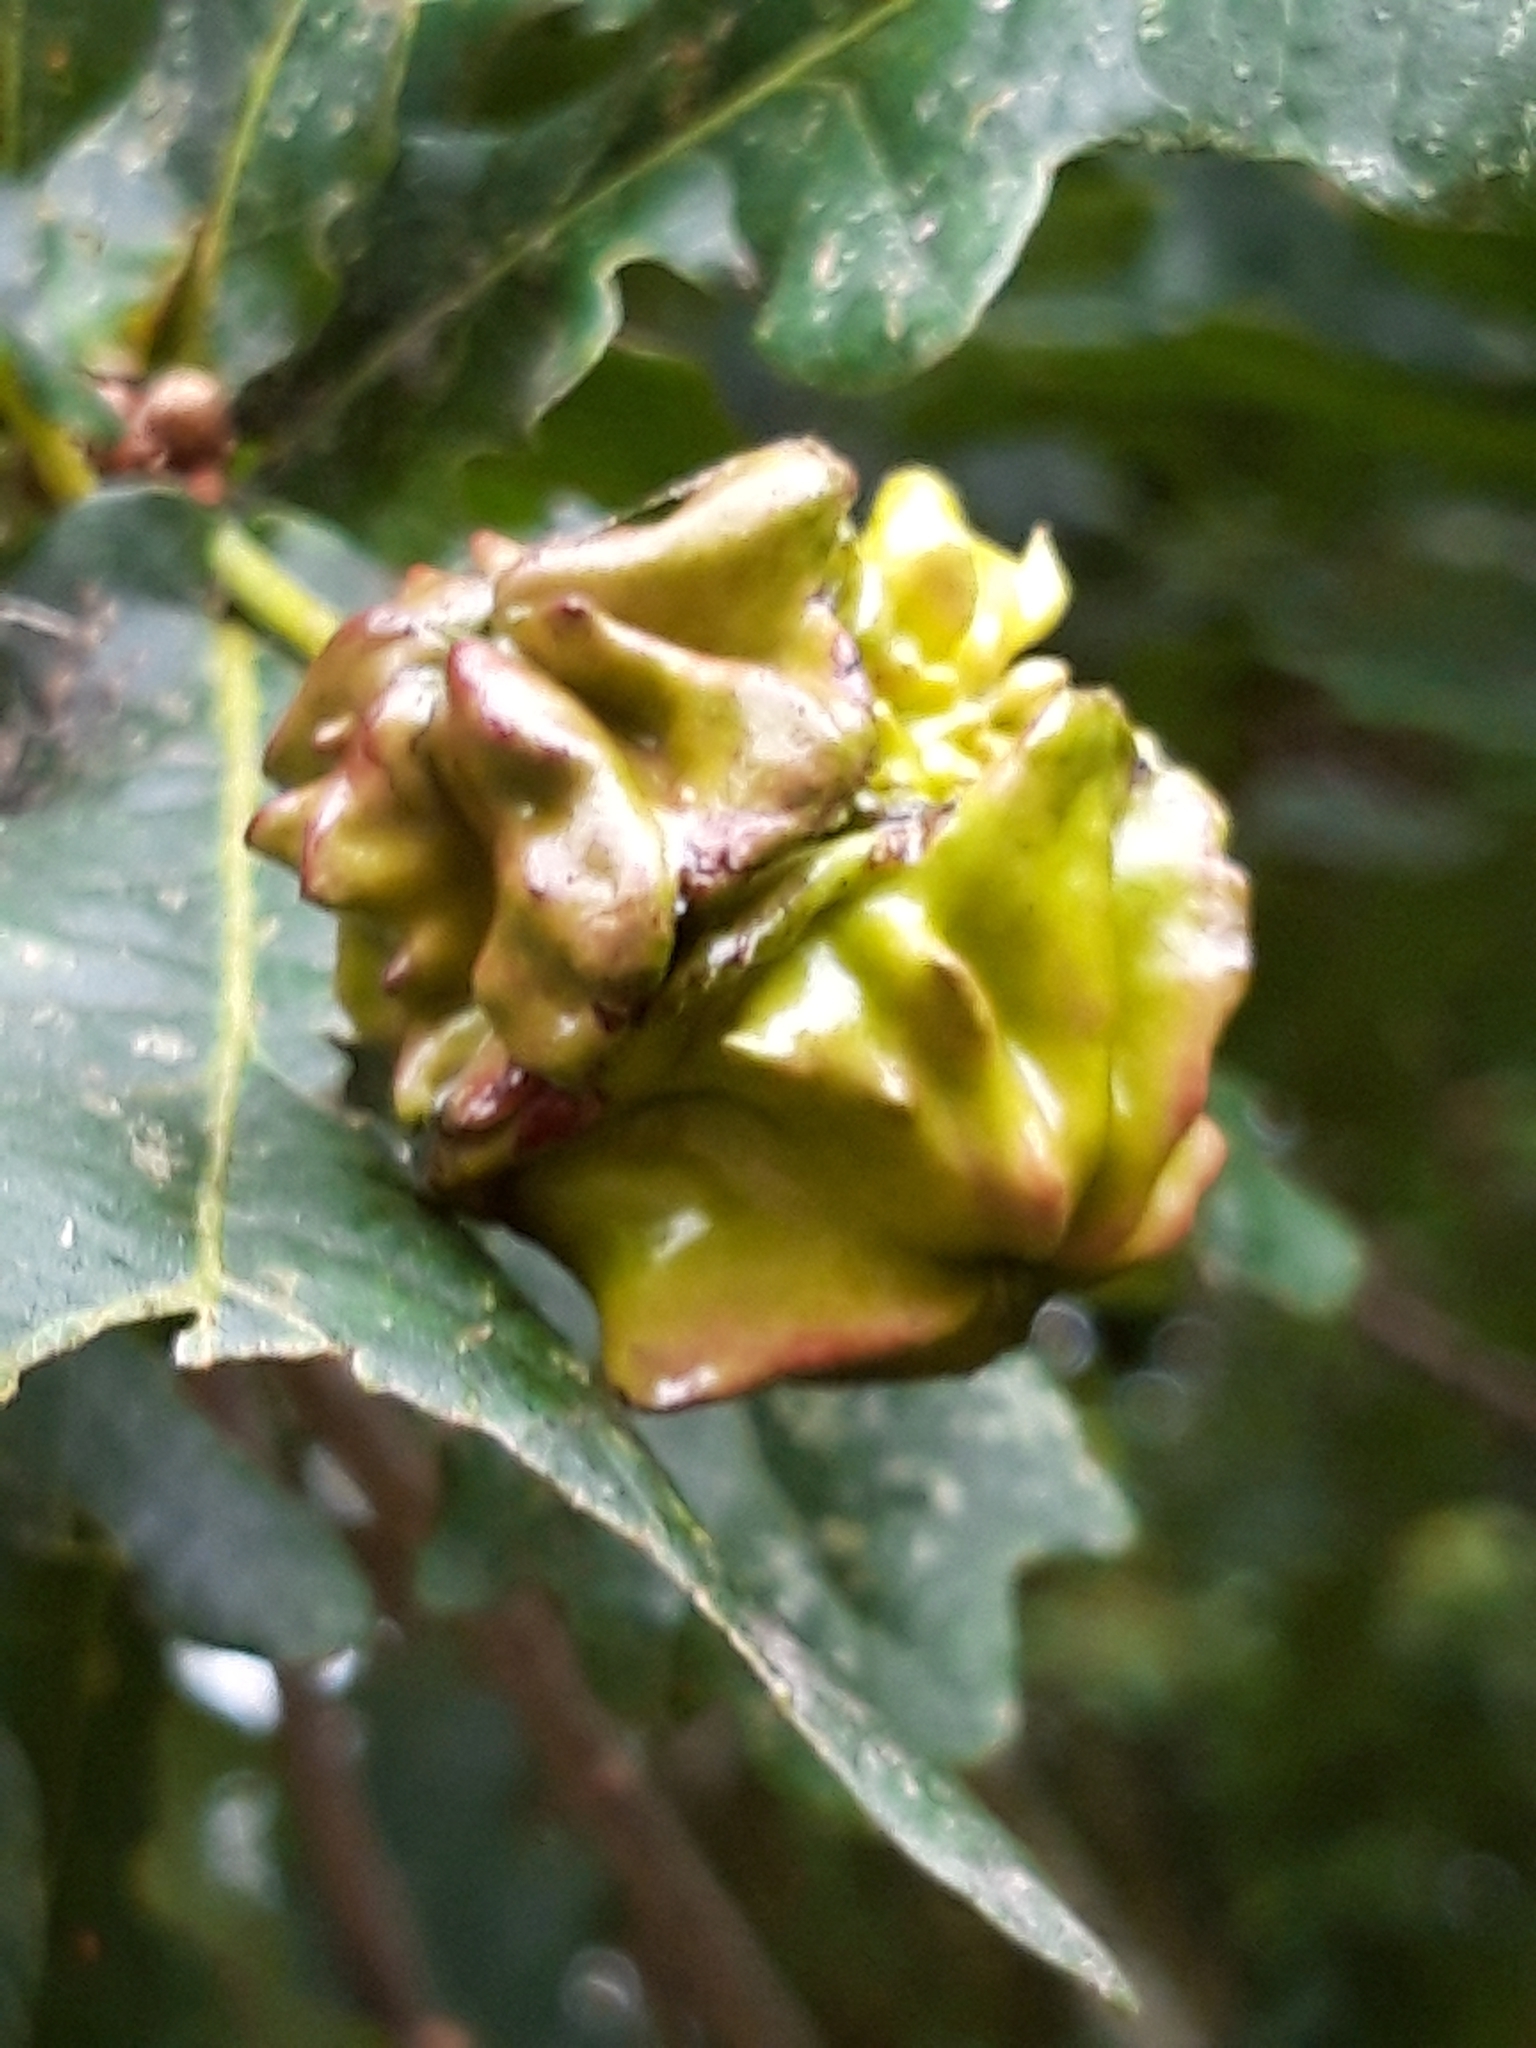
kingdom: Animalia
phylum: Arthropoda
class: Insecta
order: Hymenoptera
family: Cynipidae
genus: Andricus
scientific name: Andricus quercuscalicis
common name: Knopper gall
